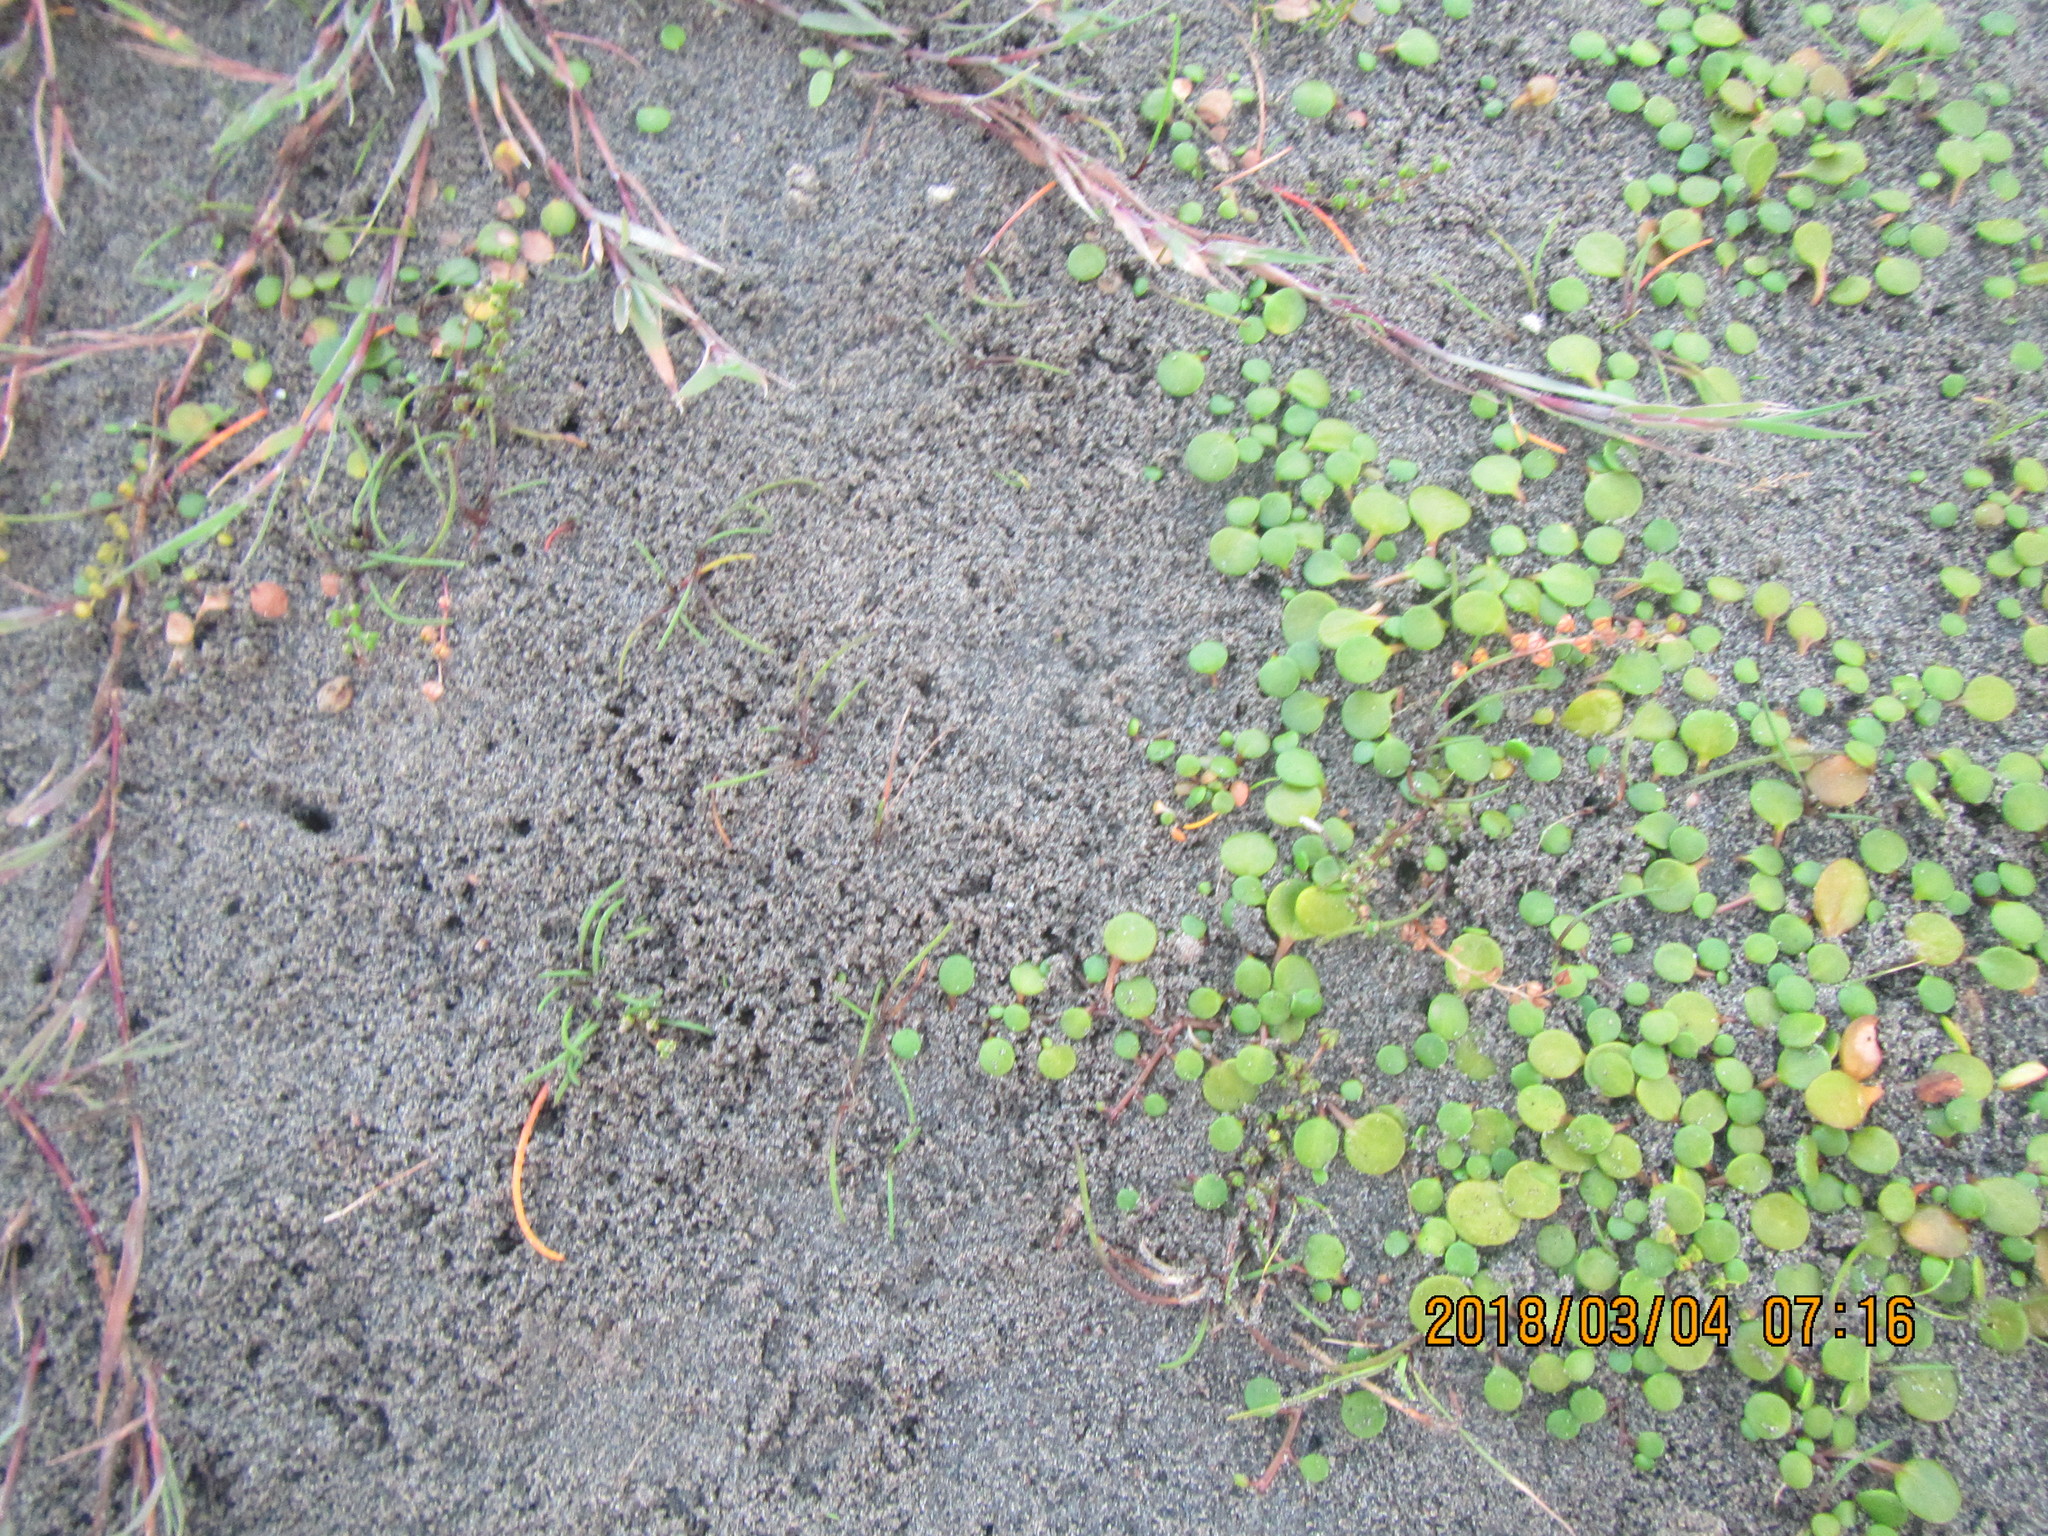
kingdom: Plantae
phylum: Tracheophyta
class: Liliopsida
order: Alismatales
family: Juncaginaceae
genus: Triglochin
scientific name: Triglochin striata
